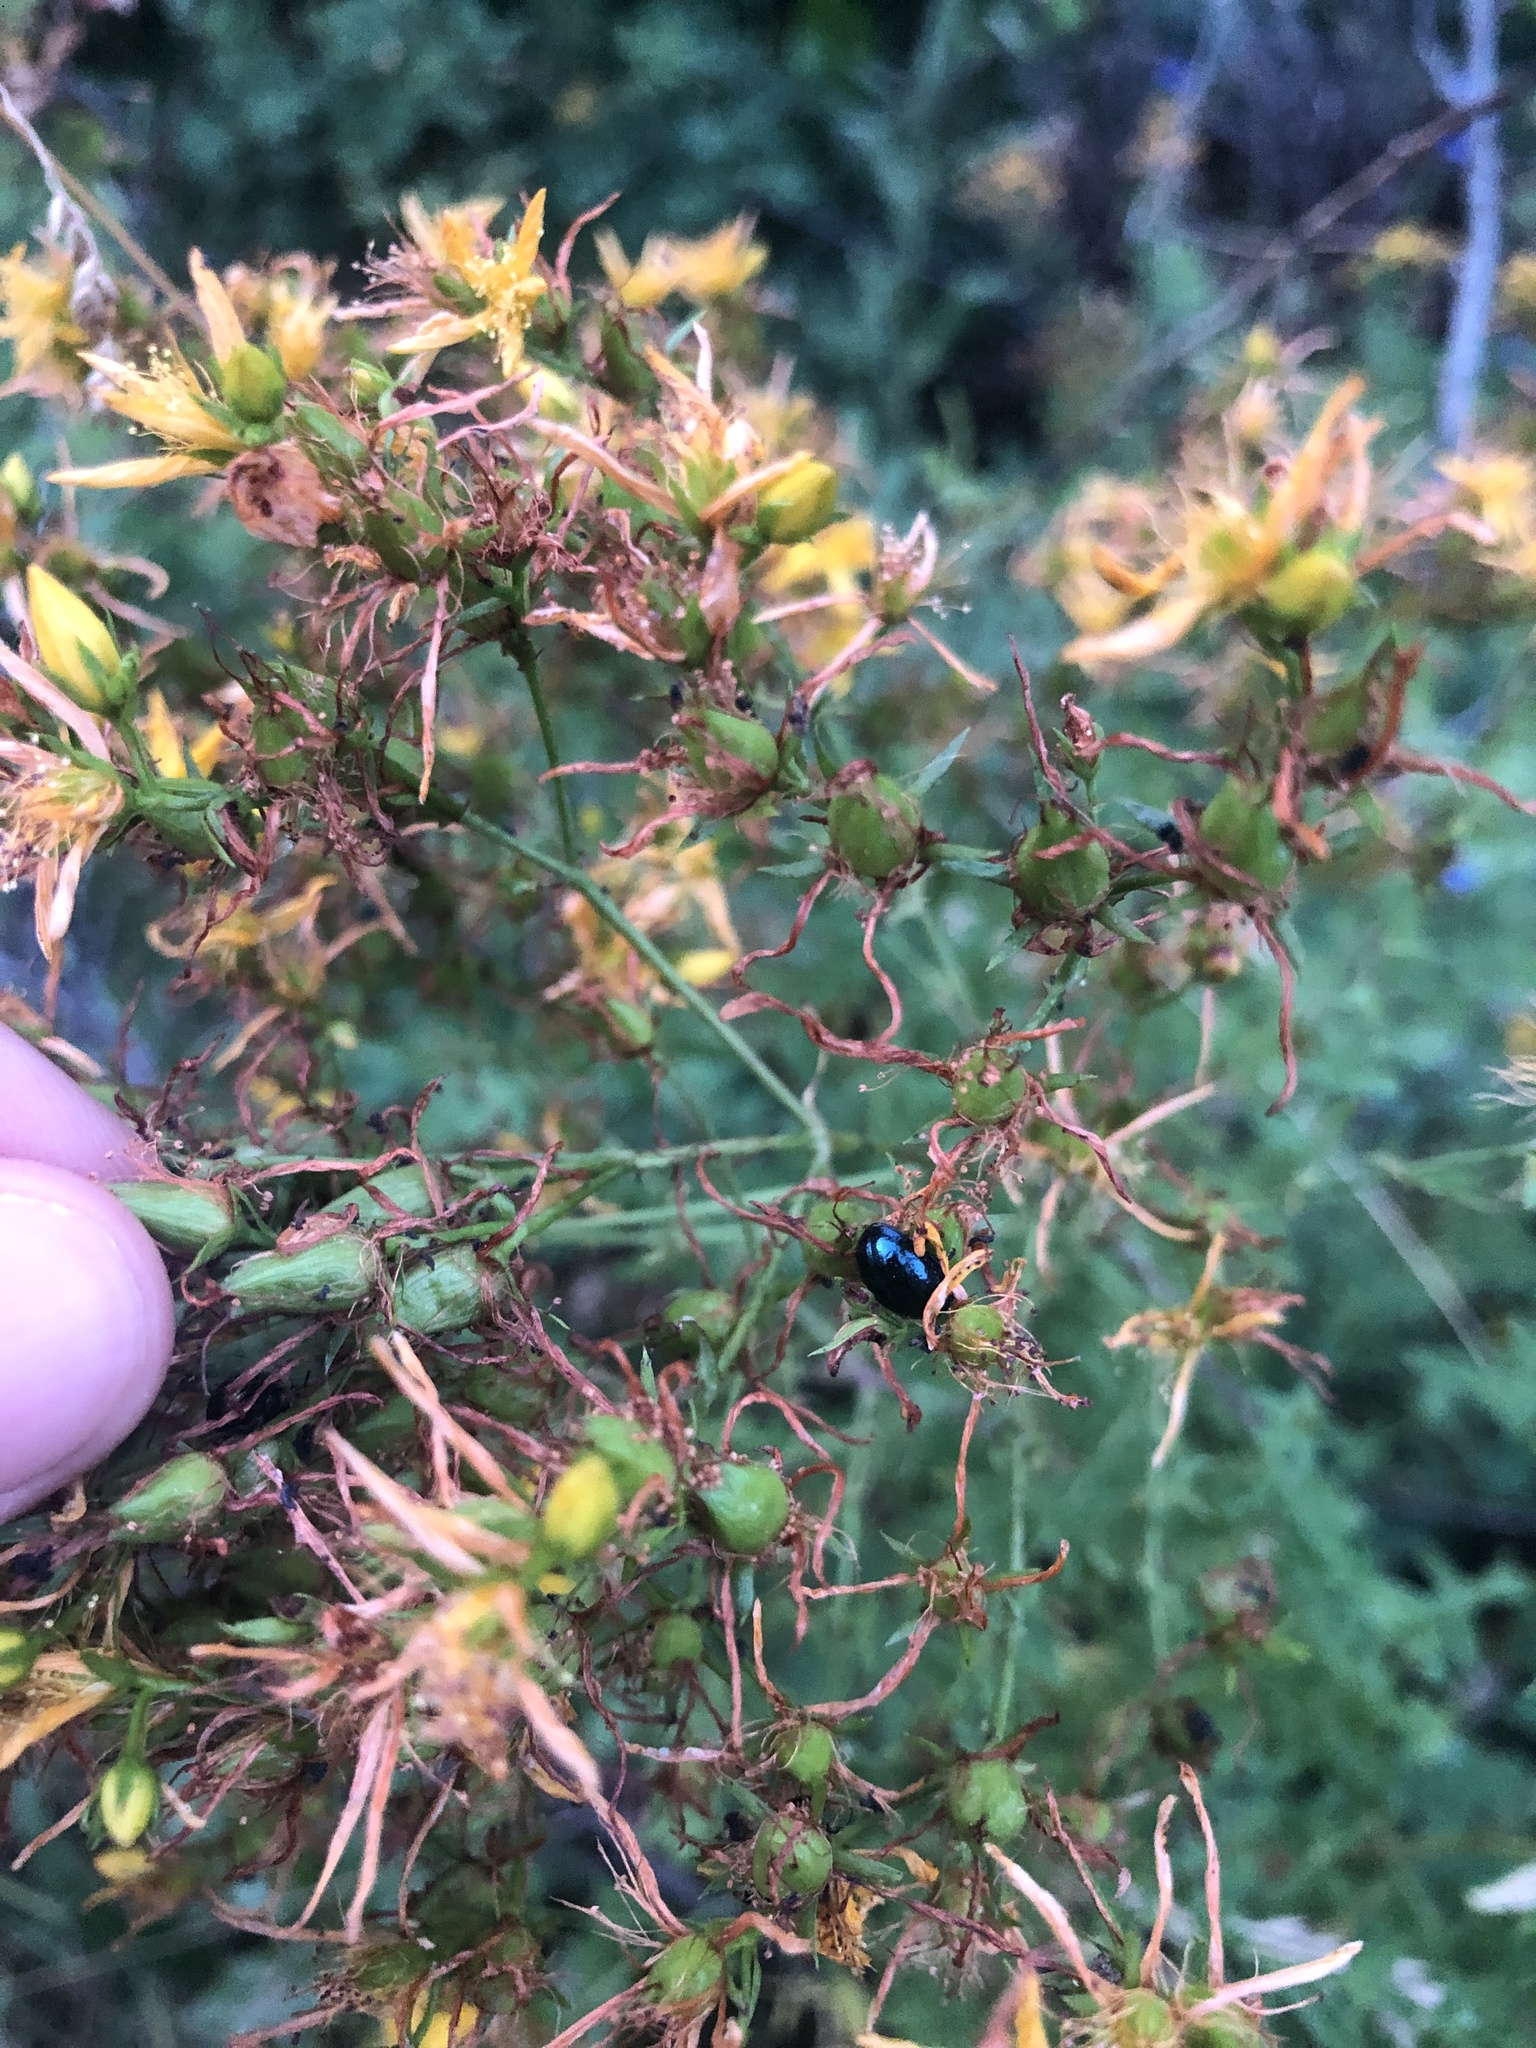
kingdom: Plantae
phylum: Tracheophyta
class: Magnoliopsida
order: Malpighiales
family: Hypericaceae
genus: Hypericum
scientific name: Hypericum perforatum
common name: Common st. johnswort
